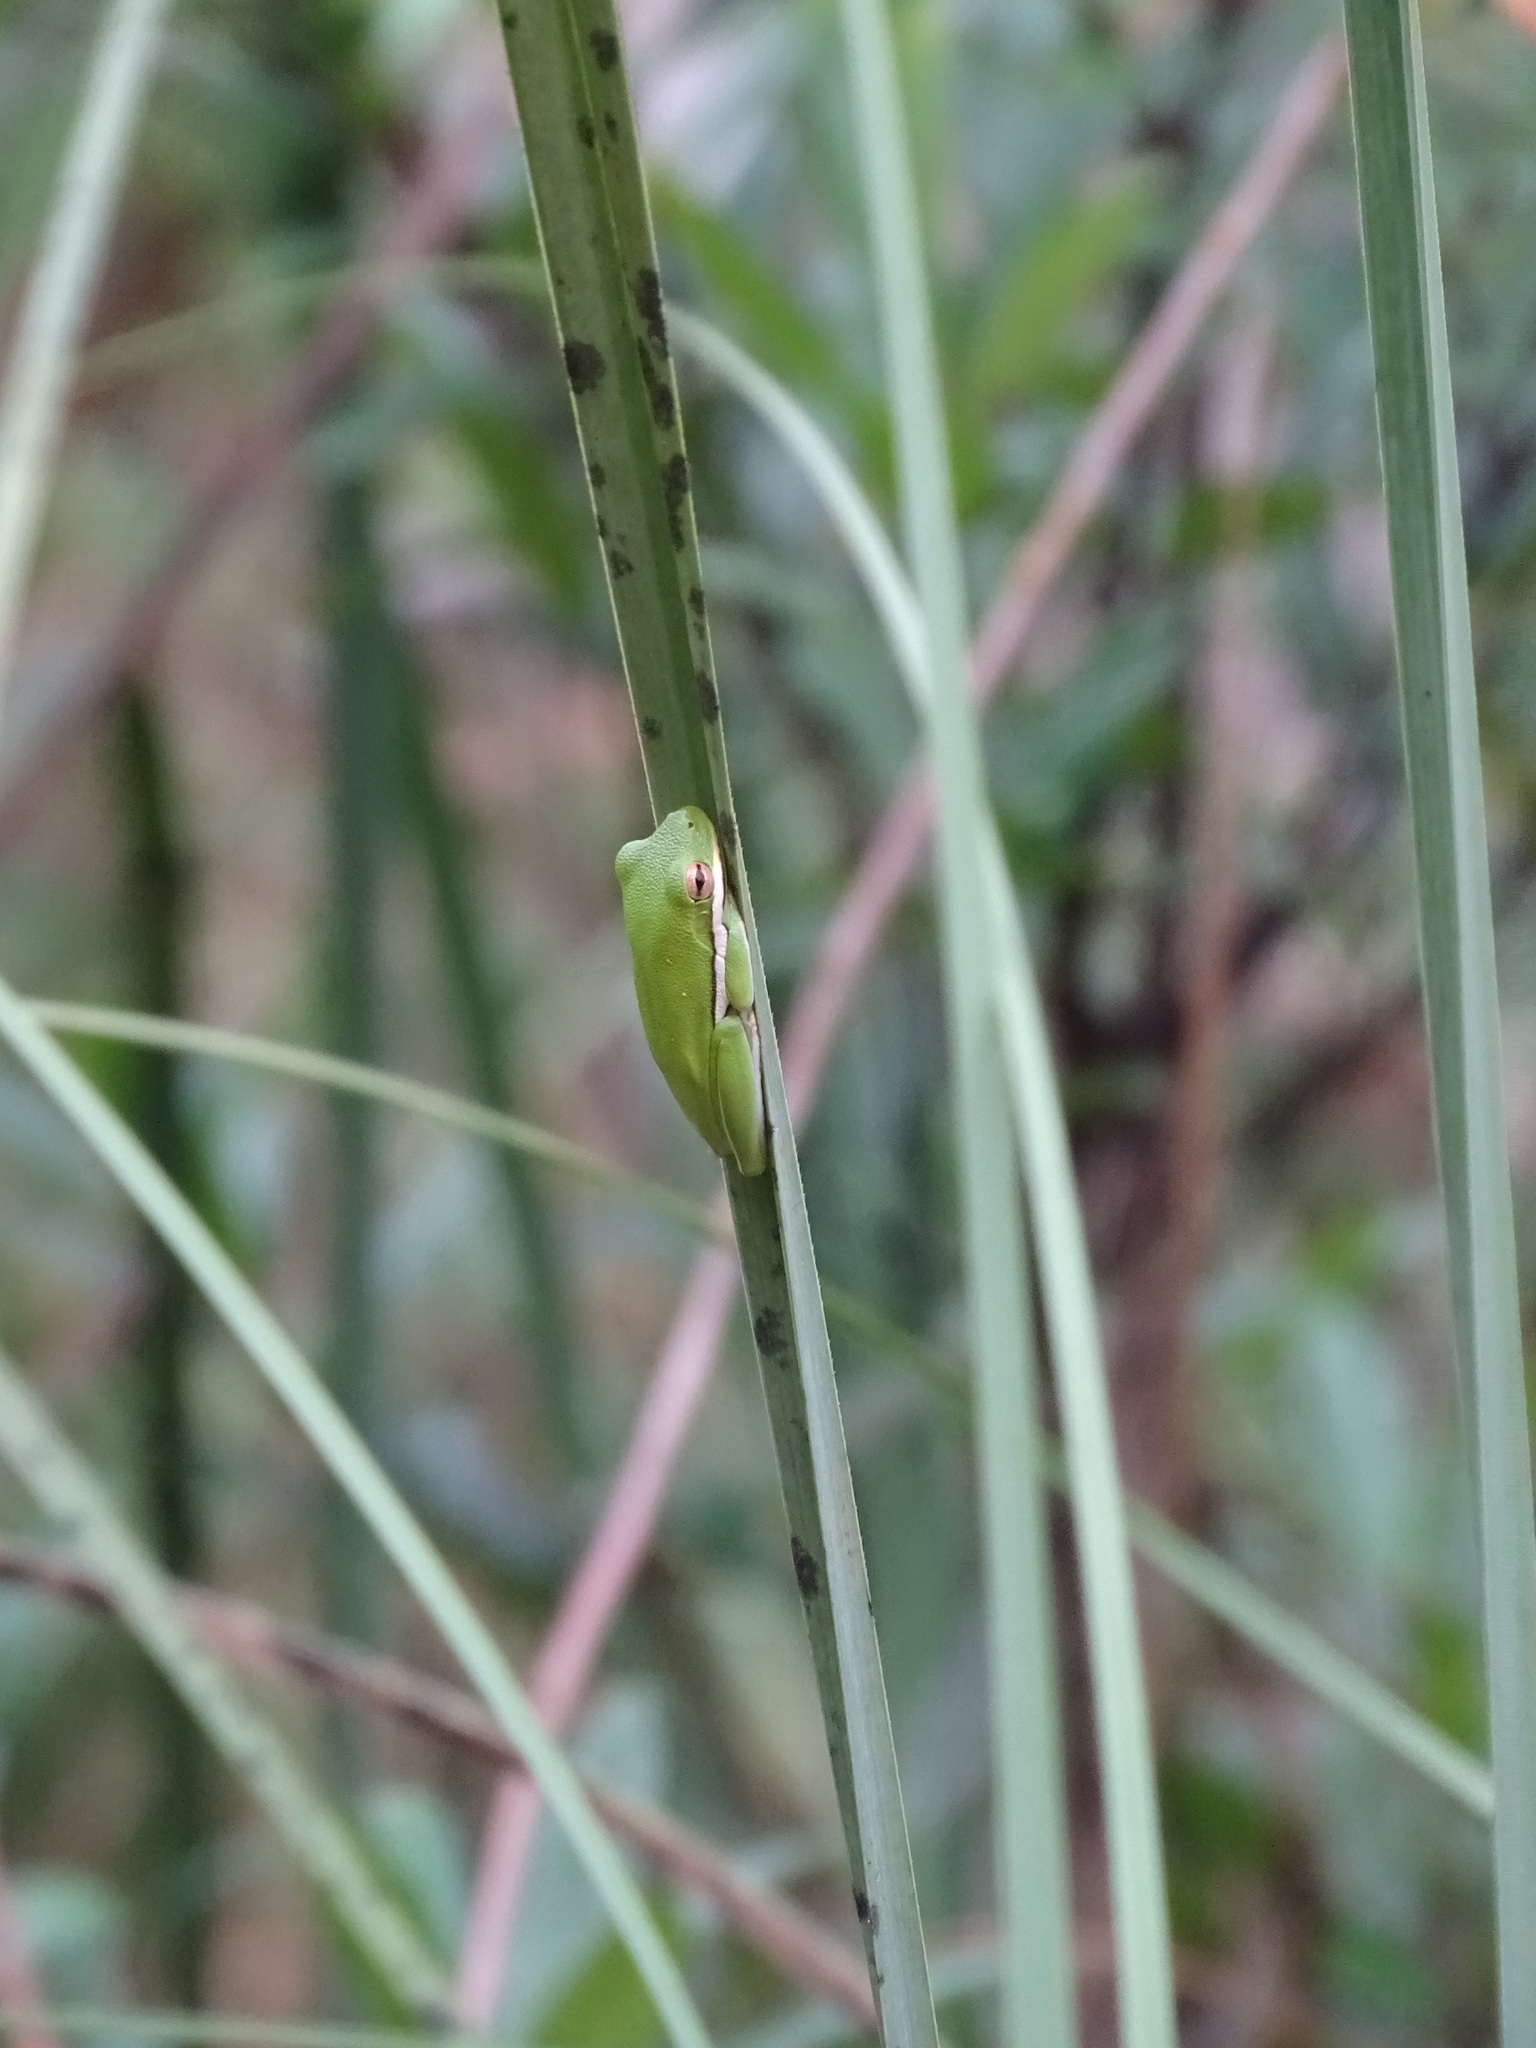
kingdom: Animalia
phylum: Chordata
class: Amphibia
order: Anura
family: Hylidae
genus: Dryophytes
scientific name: Dryophytes cinereus
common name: Green treefrog
